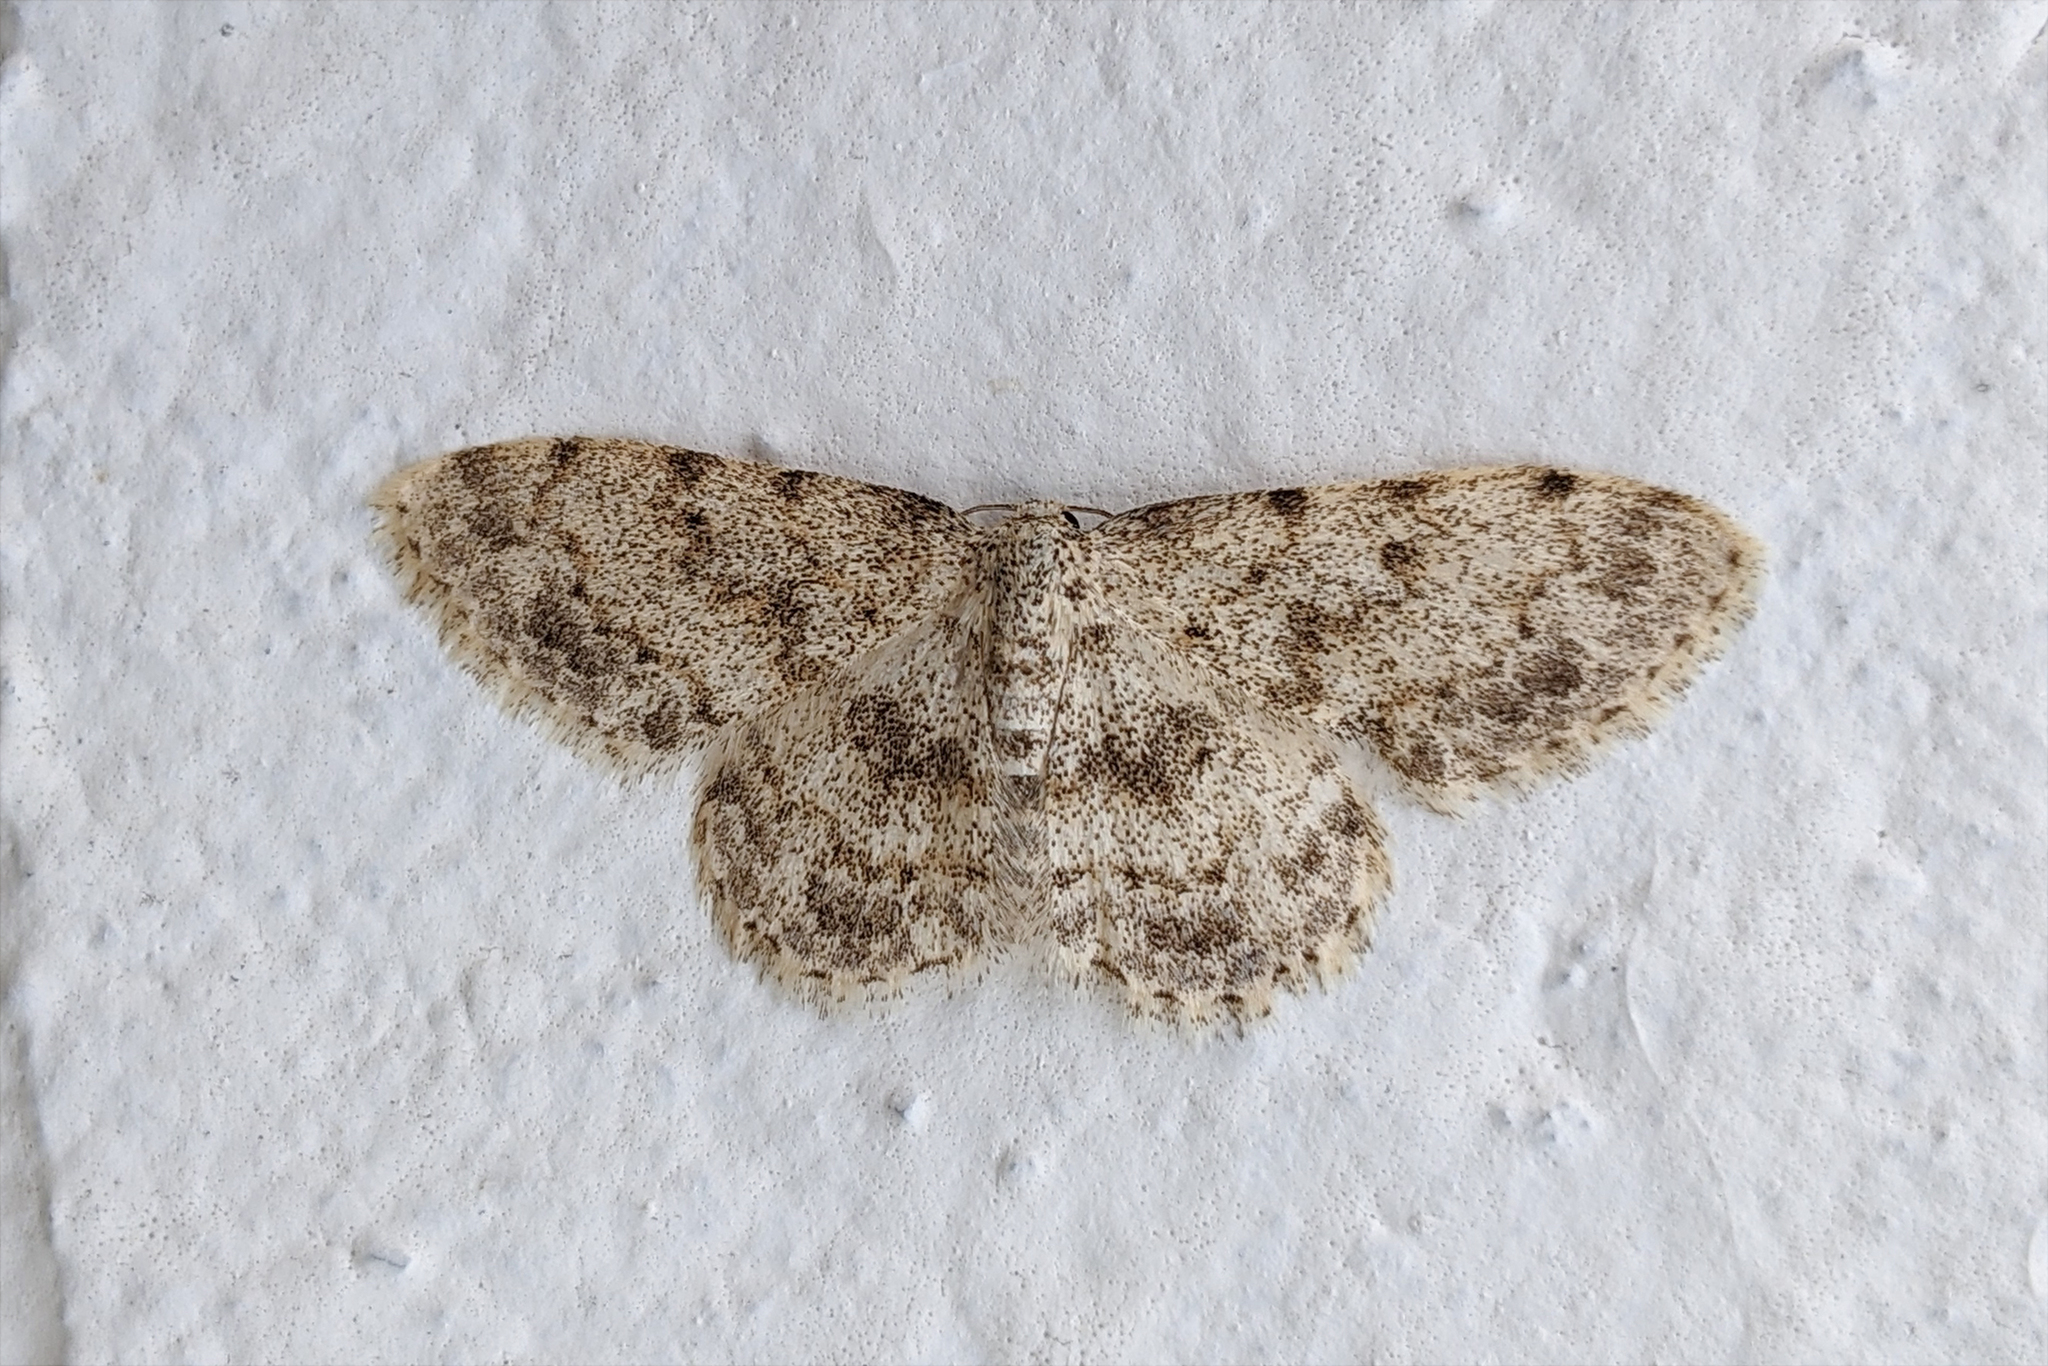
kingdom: Animalia
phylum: Arthropoda
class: Insecta
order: Lepidoptera
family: Geometridae
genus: Scopula
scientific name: Scopula luridata
